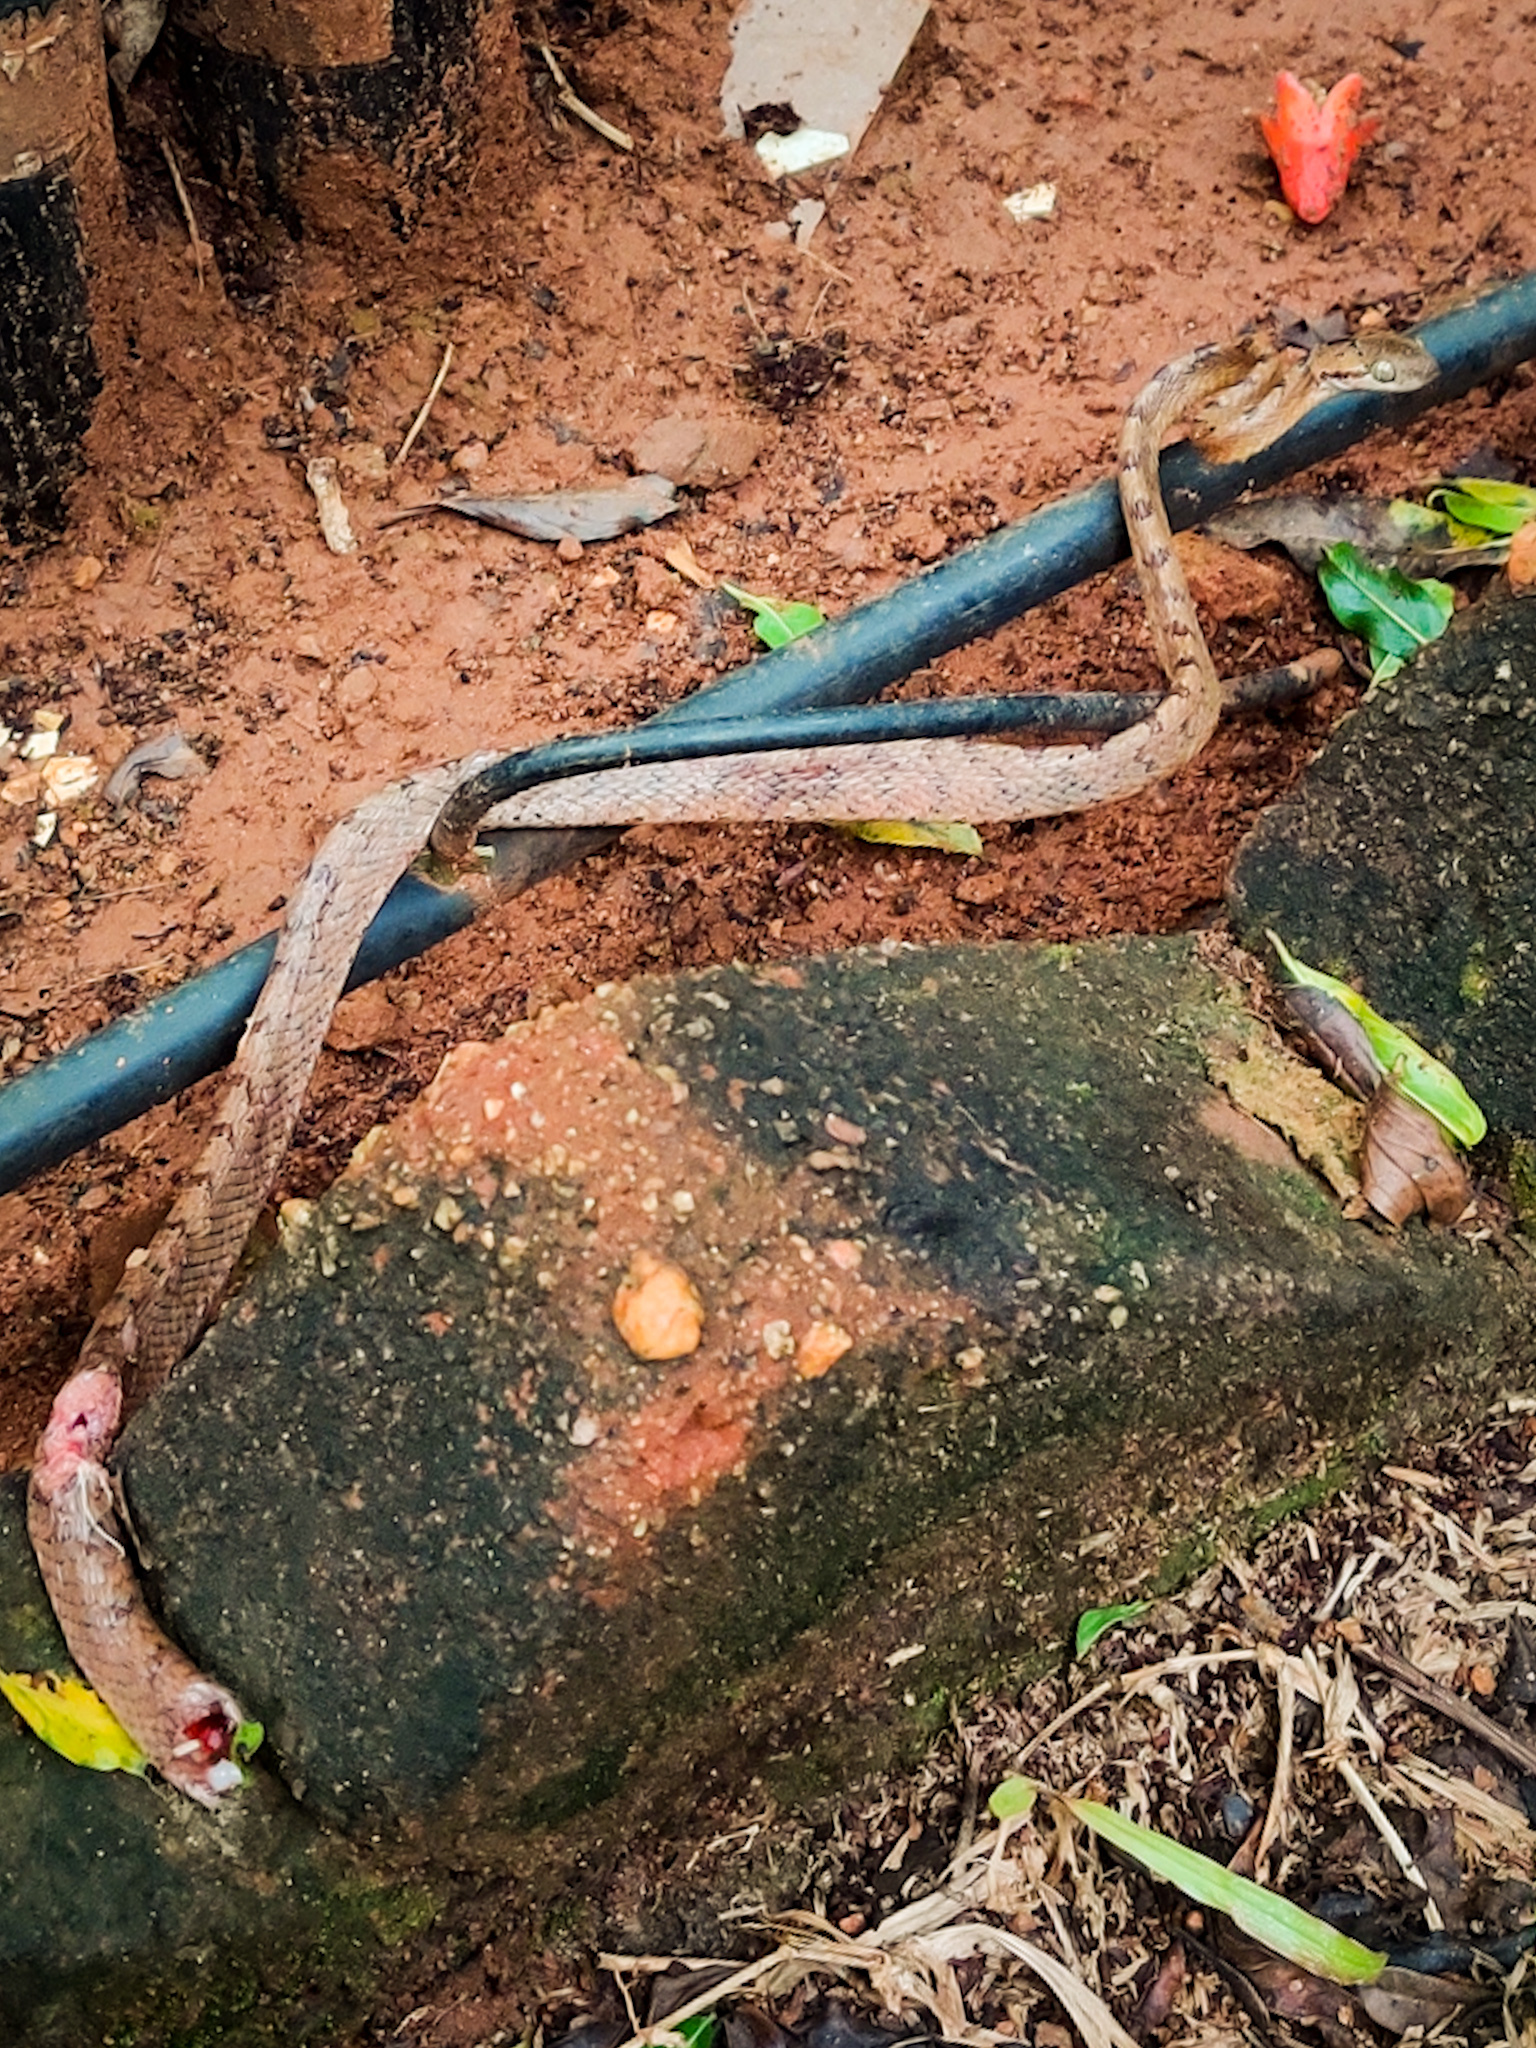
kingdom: Animalia
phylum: Chordata
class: Squamata
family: Colubridae
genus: Boiga
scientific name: Boiga nuchalis
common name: Collared catsnake
